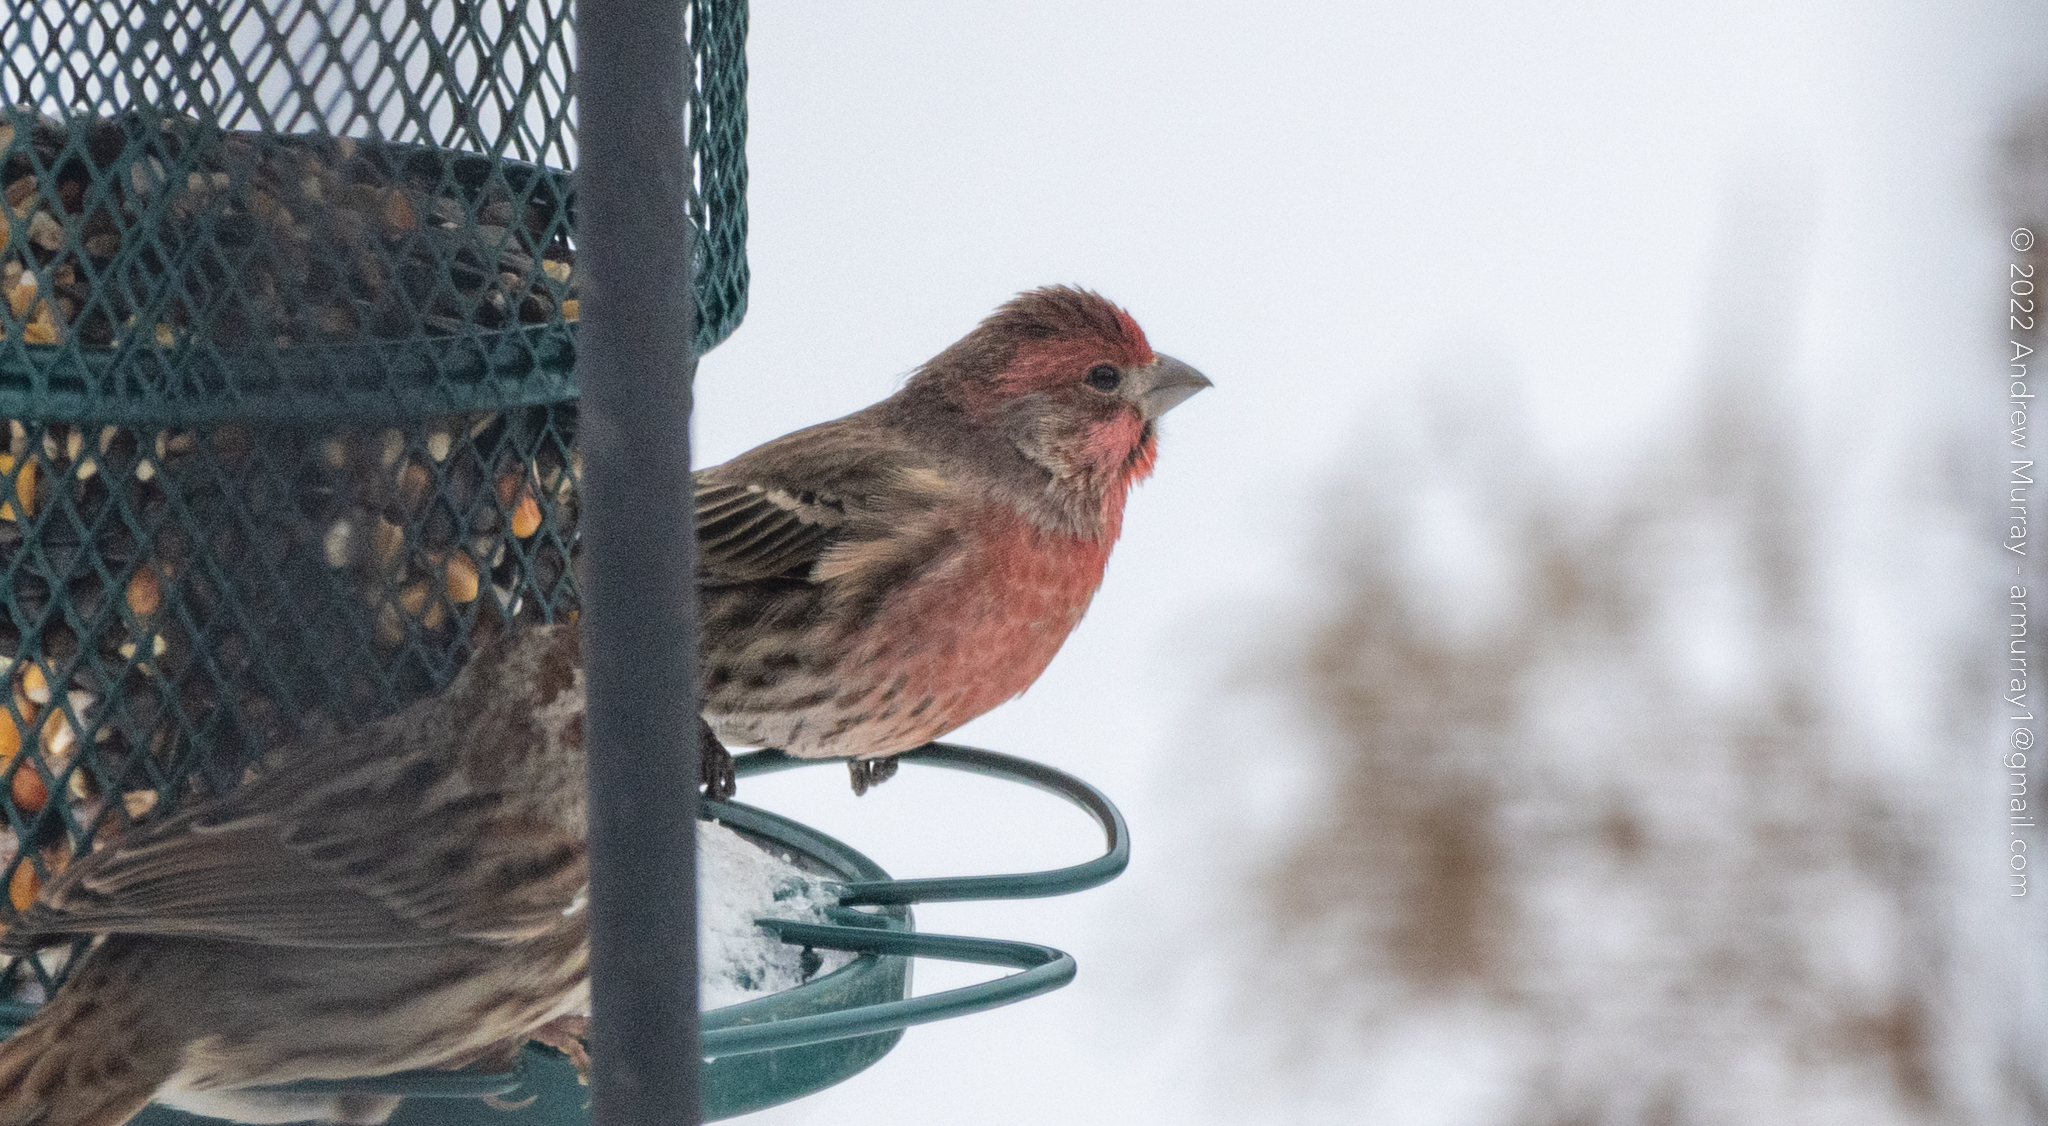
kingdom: Animalia
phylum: Chordata
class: Aves
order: Passeriformes
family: Fringillidae
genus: Haemorhous
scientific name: Haemorhous mexicanus
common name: House finch
